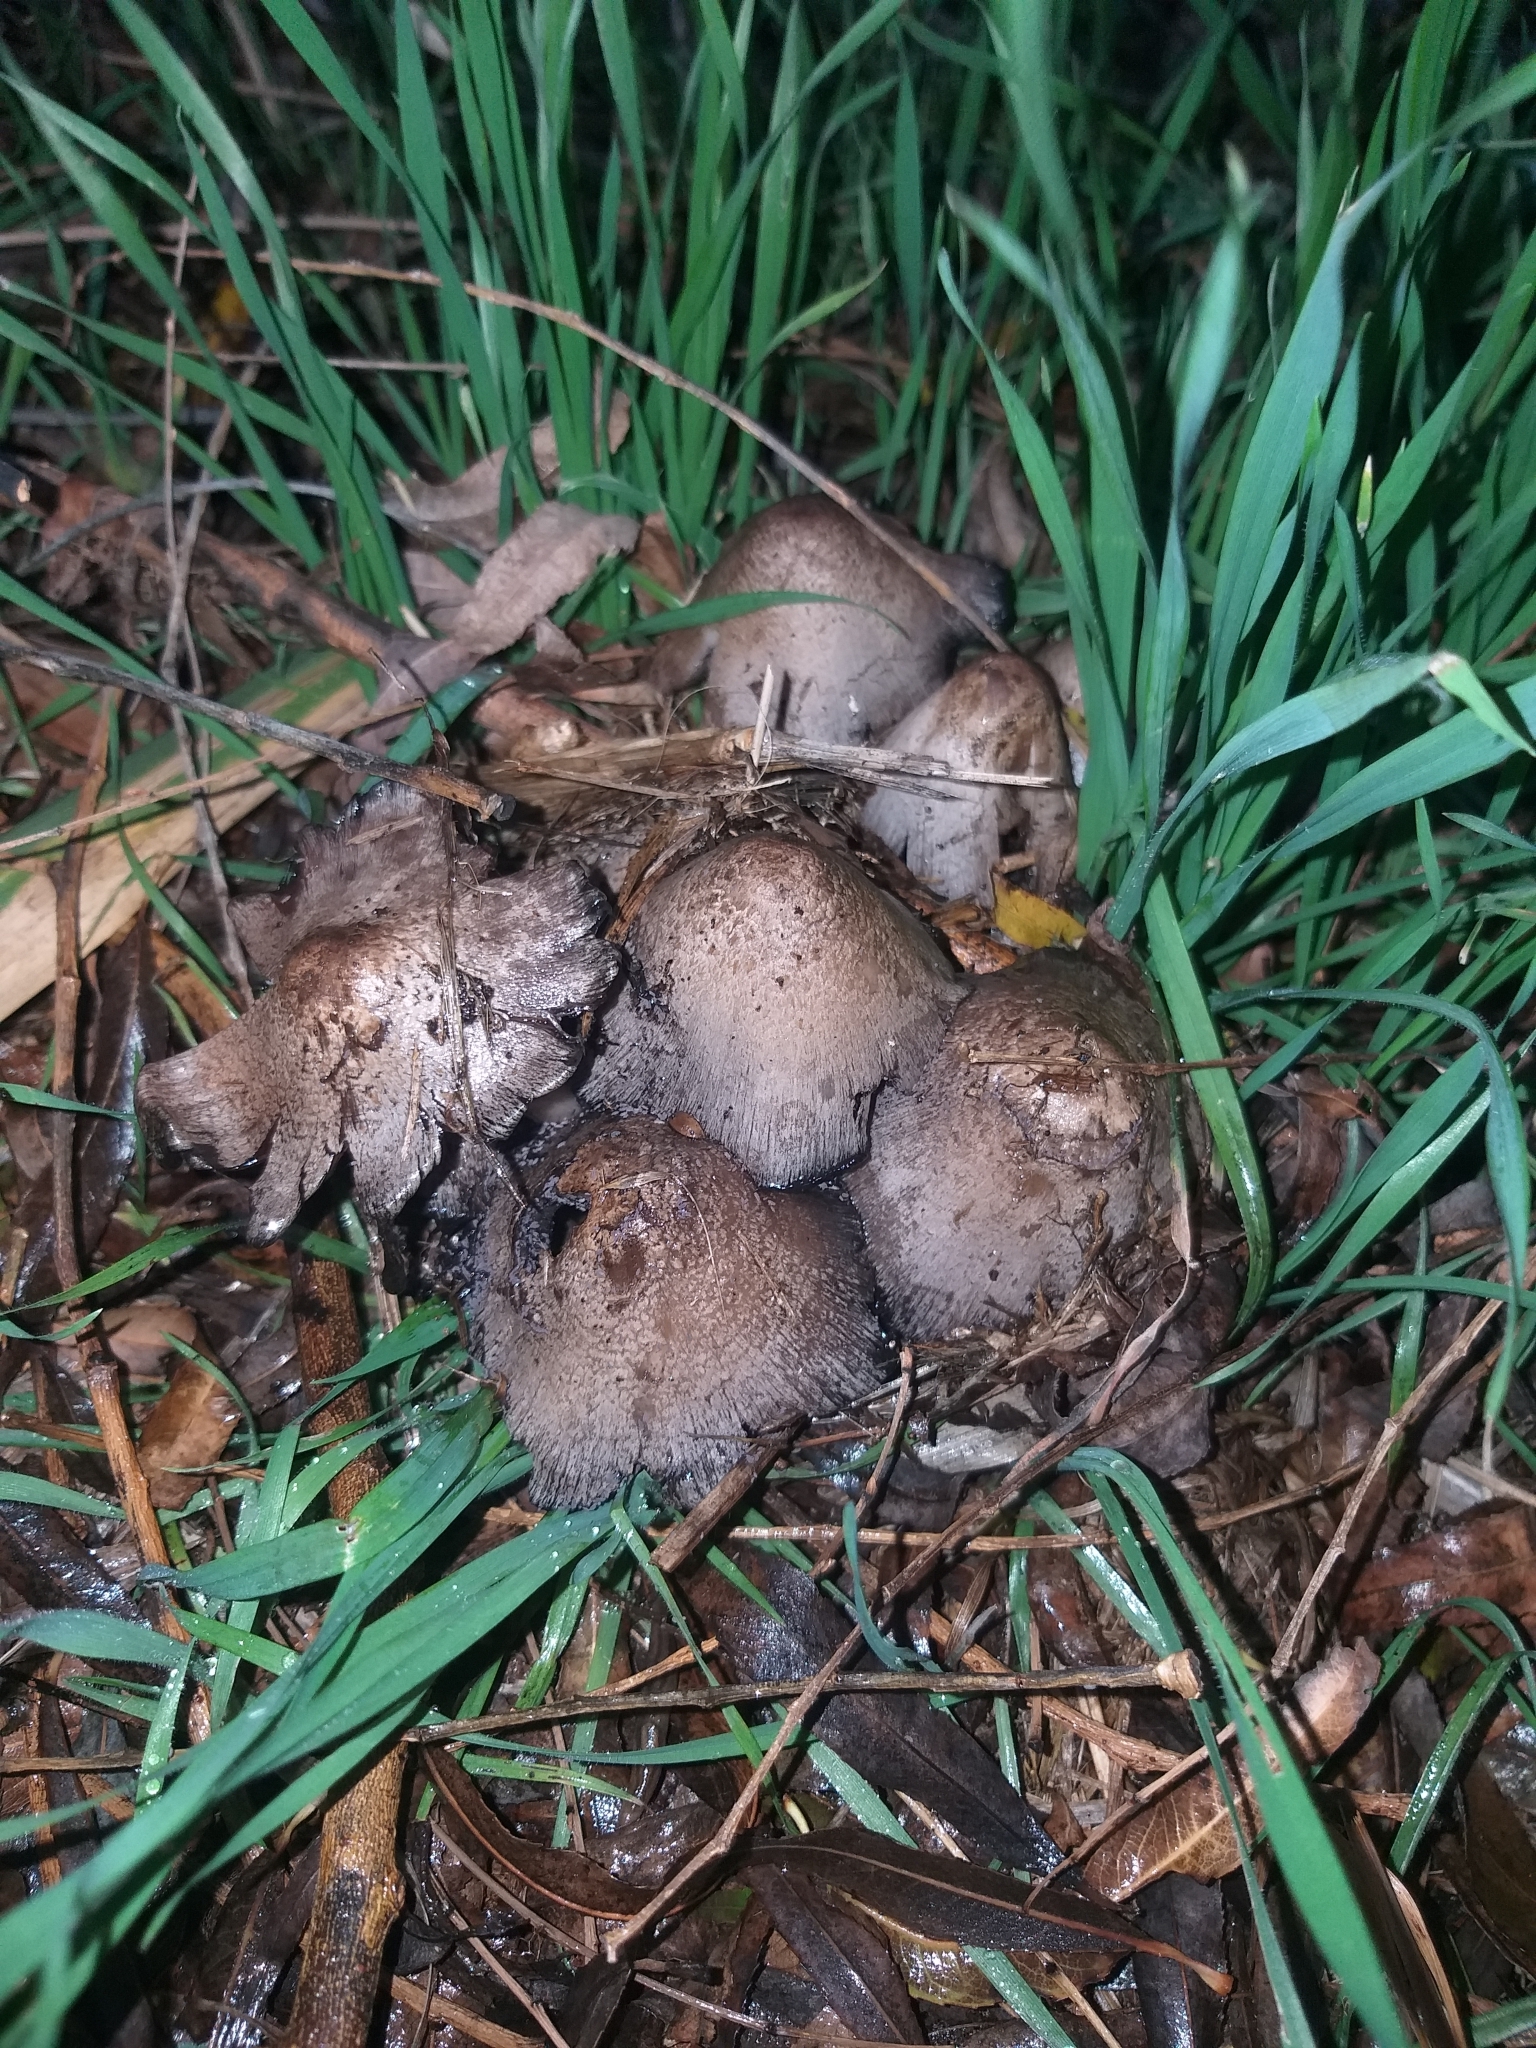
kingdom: Fungi
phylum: Basidiomycota
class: Agaricomycetes
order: Agaricales
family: Agaricaceae
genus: Coprinus
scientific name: Coprinus comatus
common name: Lawyer's wig
